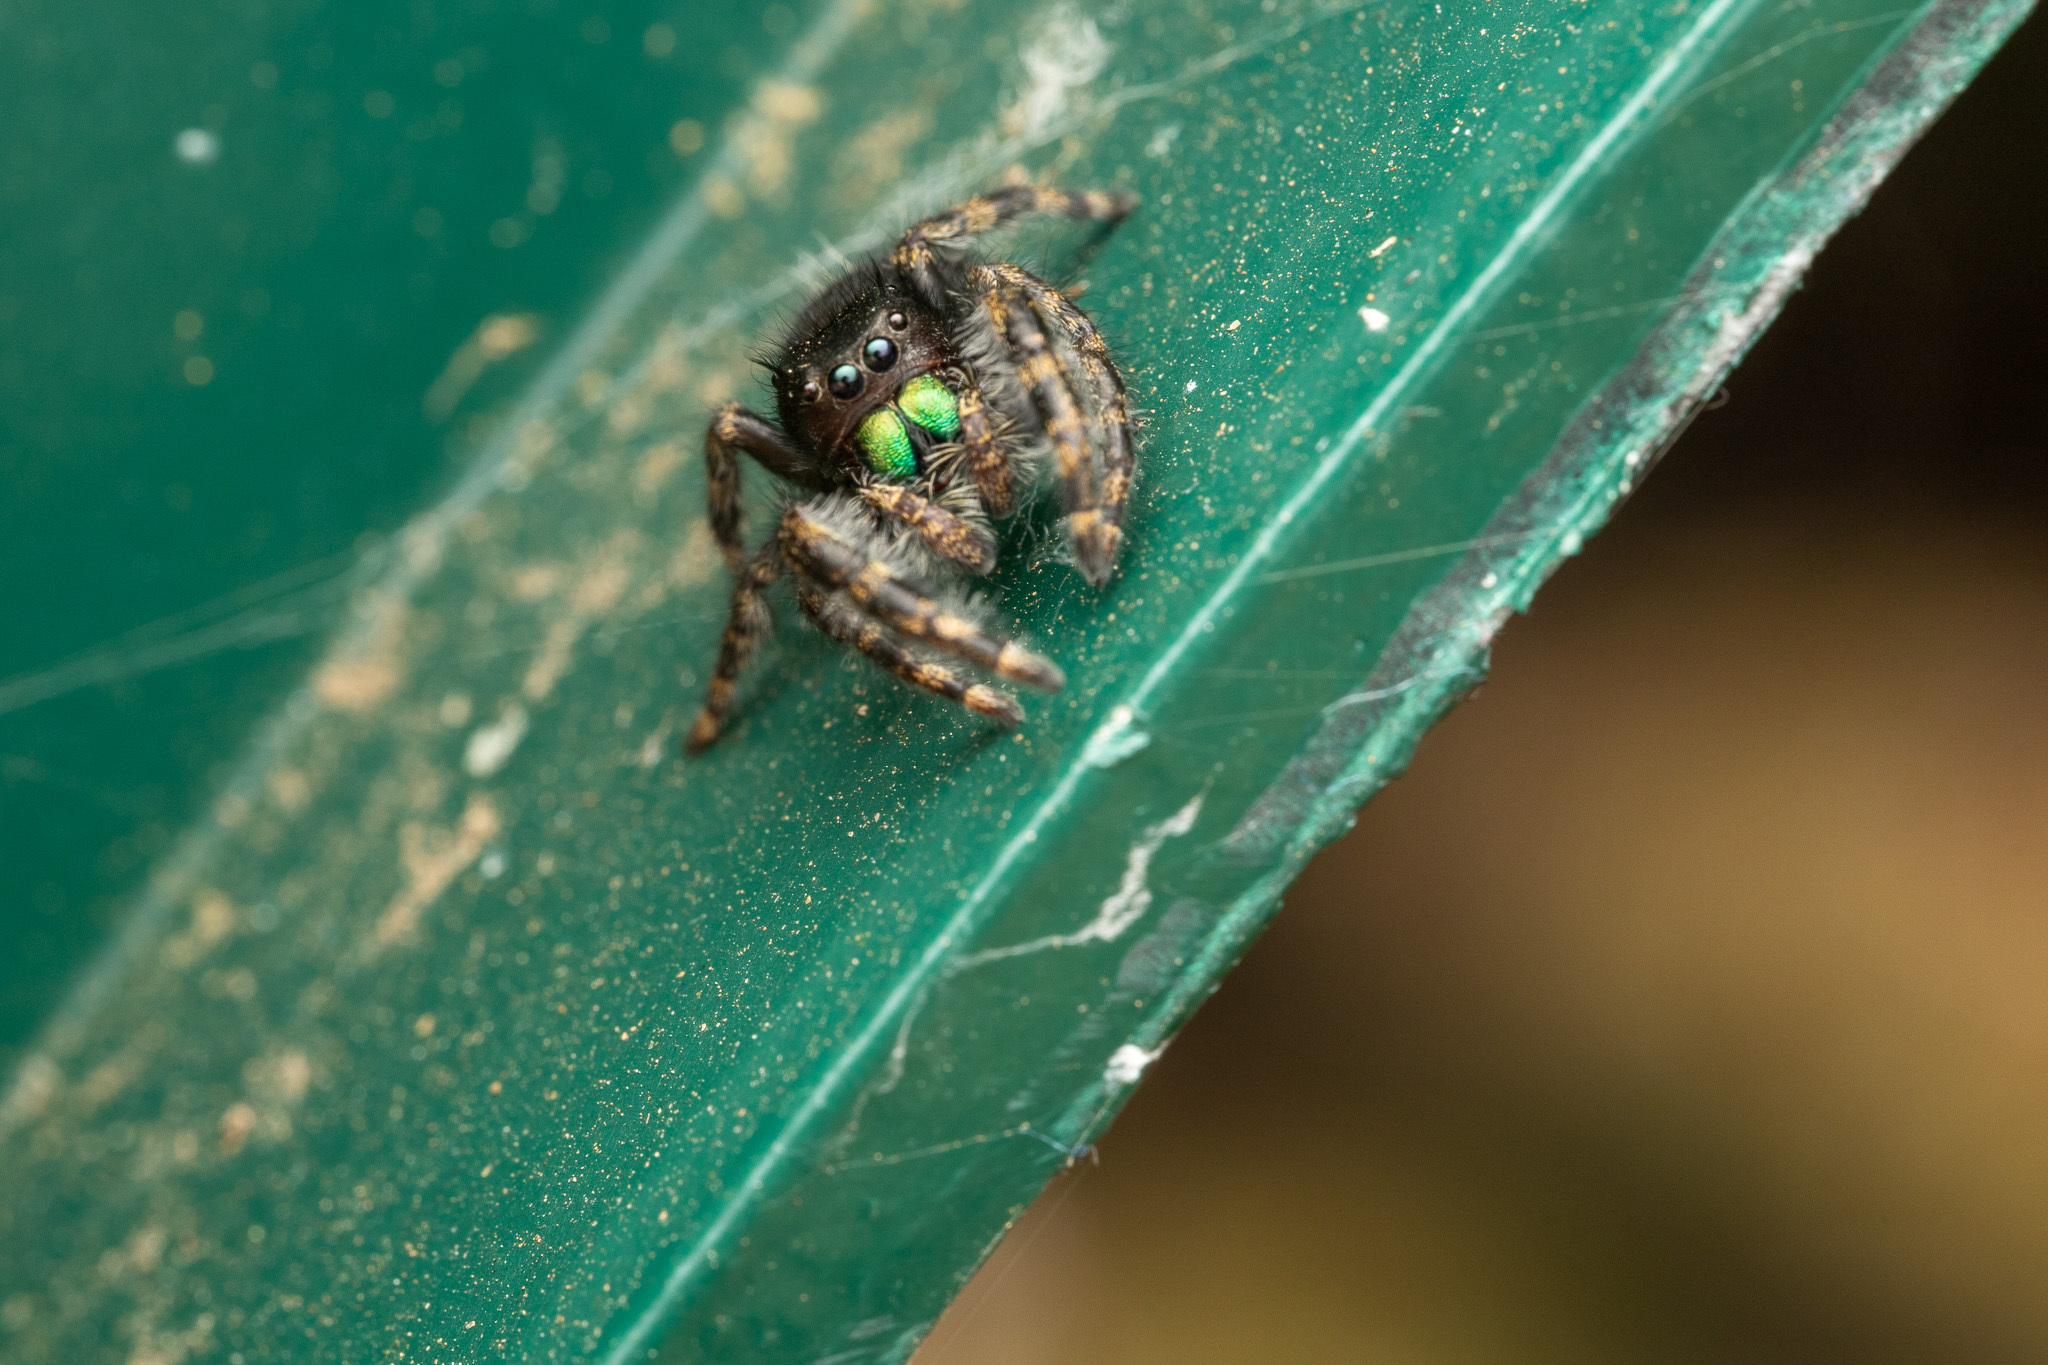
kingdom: Animalia
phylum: Arthropoda
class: Arachnida
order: Araneae
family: Salticidae
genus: Phidippus
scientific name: Phidippus audax
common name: Bold jumper
